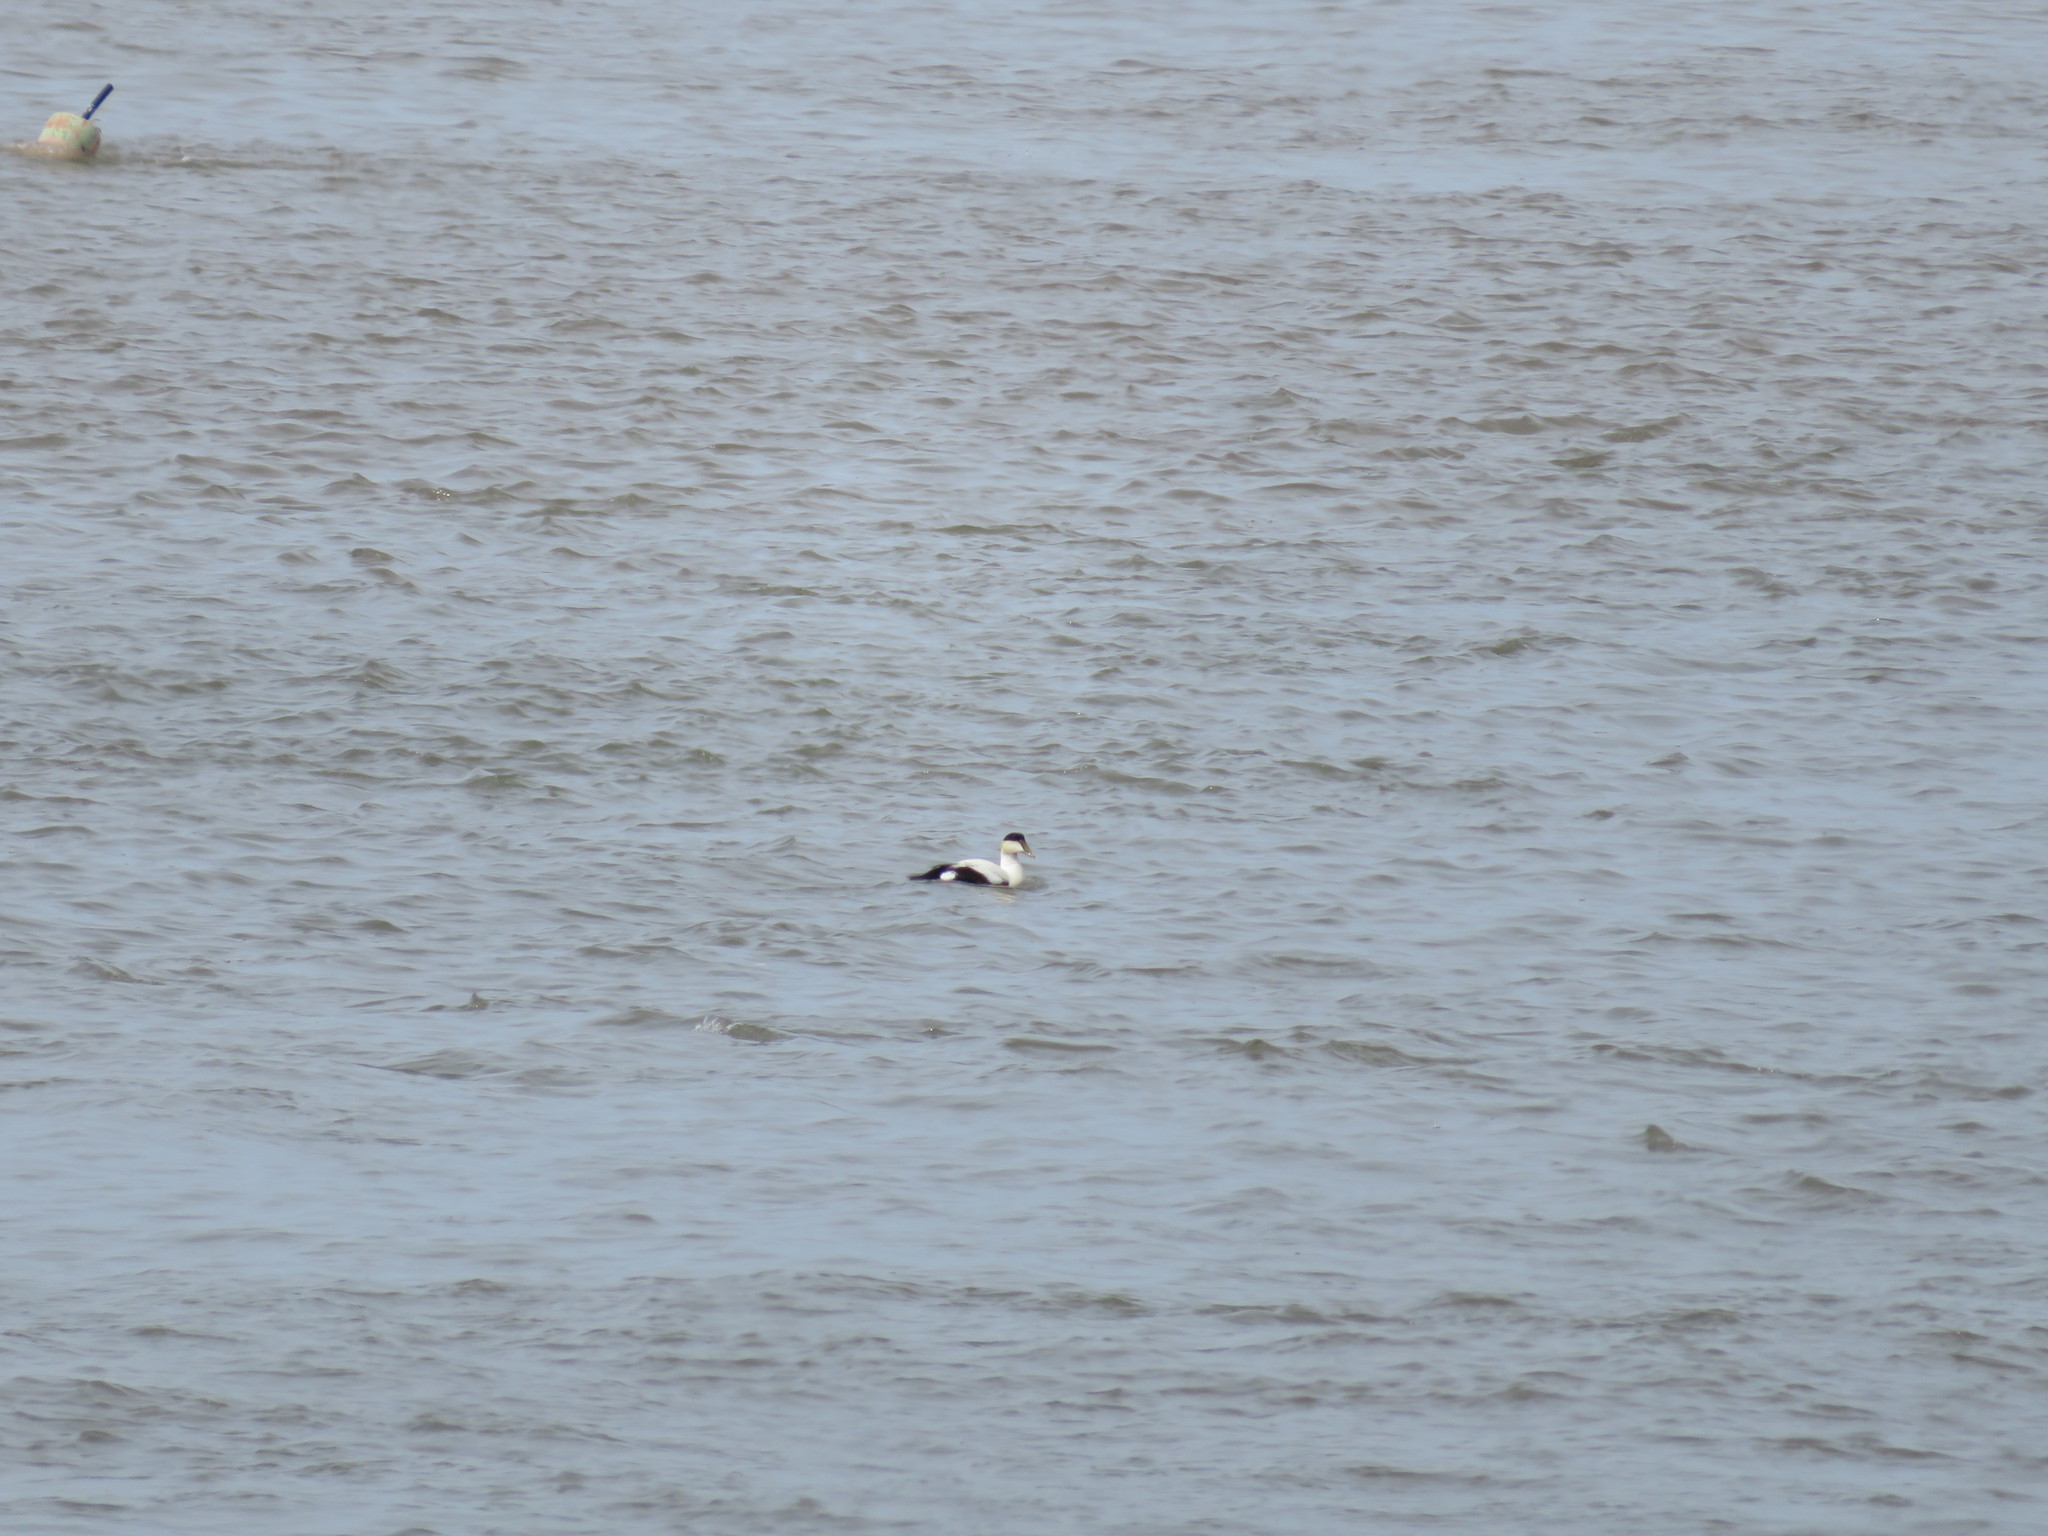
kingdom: Animalia
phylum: Chordata
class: Aves
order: Anseriformes
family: Anatidae
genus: Somateria
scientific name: Somateria mollissima
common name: Common eider
